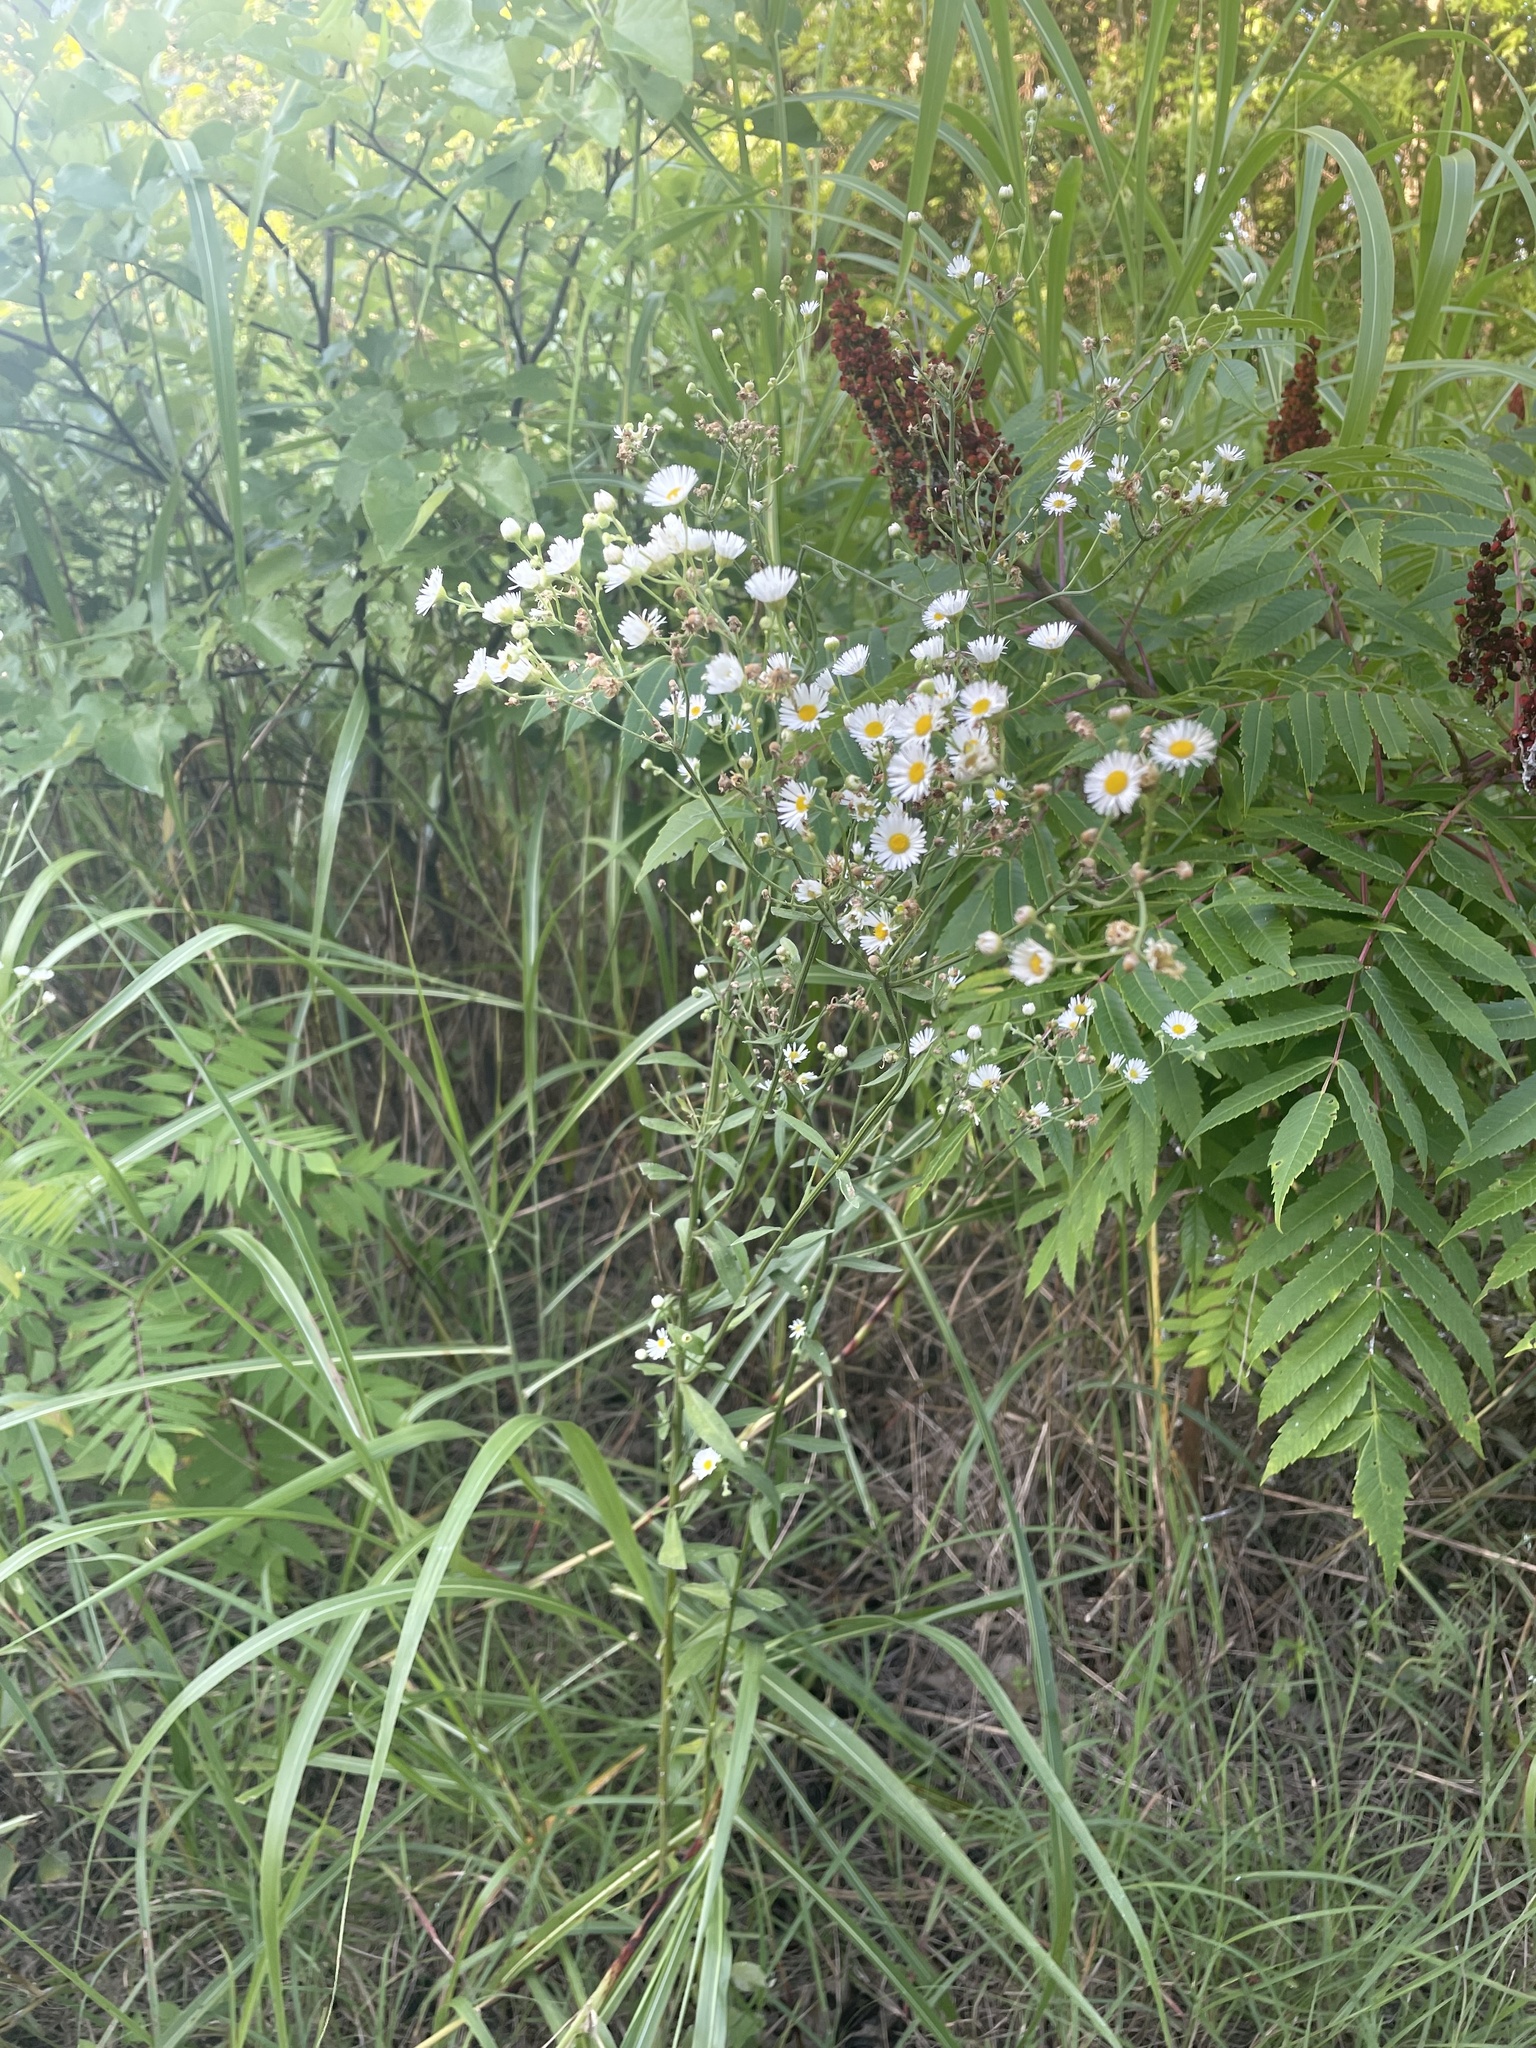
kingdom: Plantae
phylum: Tracheophyta
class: Magnoliopsida
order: Asterales
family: Asteraceae
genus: Erigeron
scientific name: Erigeron strigosus
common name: Common eastern fleabane
